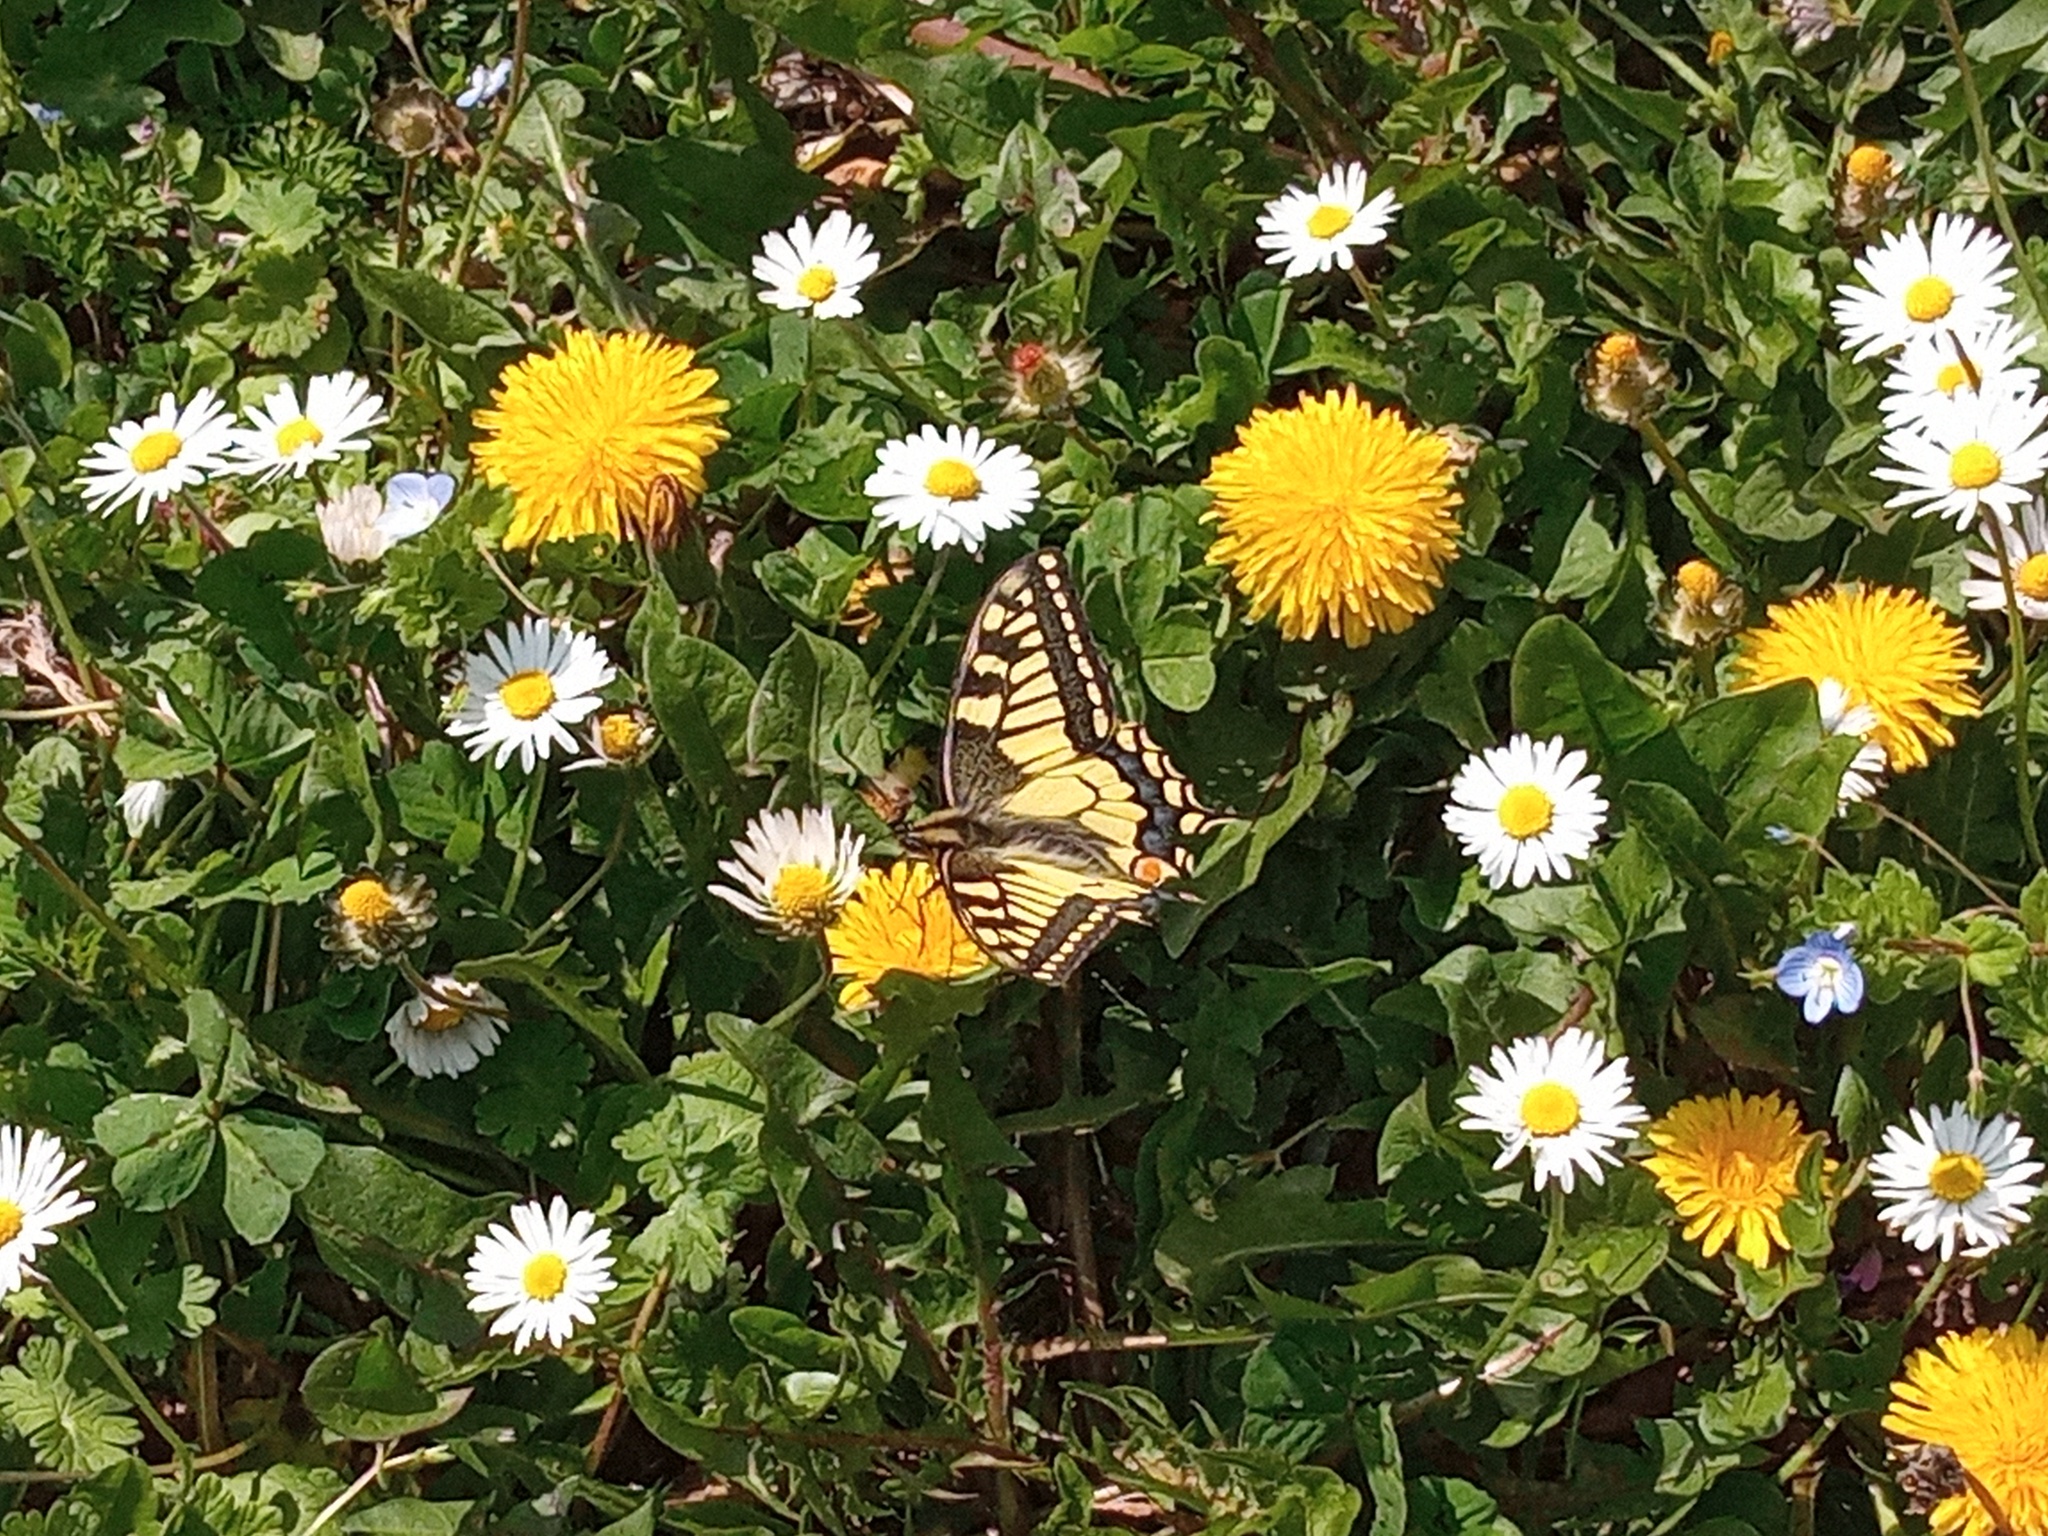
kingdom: Animalia
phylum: Arthropoda
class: Insecta
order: Lepidoptera
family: Papilionidae
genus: Papilio
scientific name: Papilio machaon
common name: Swallowtail
